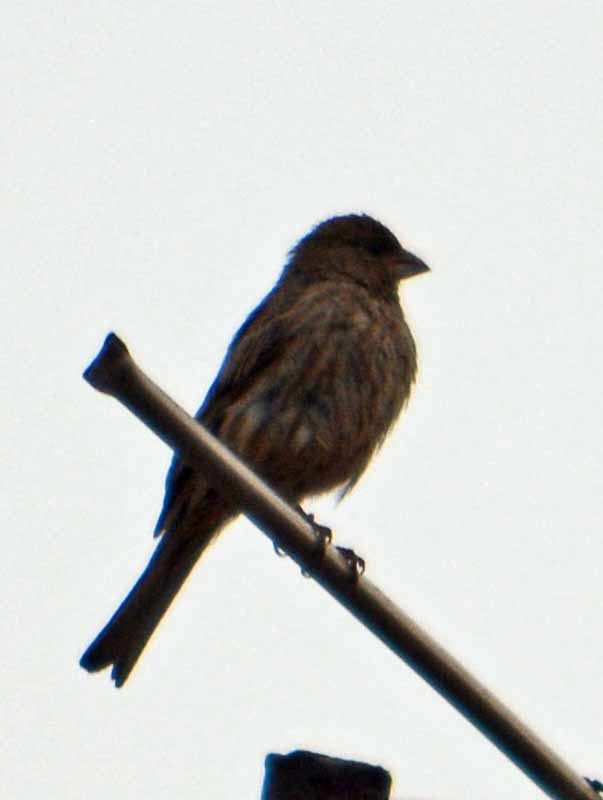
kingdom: Animalia
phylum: Chordata
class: Aves
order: Passeriformes
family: Fringillidae
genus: Haemorhous
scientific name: Haemorhous mexicanus
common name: House finch
